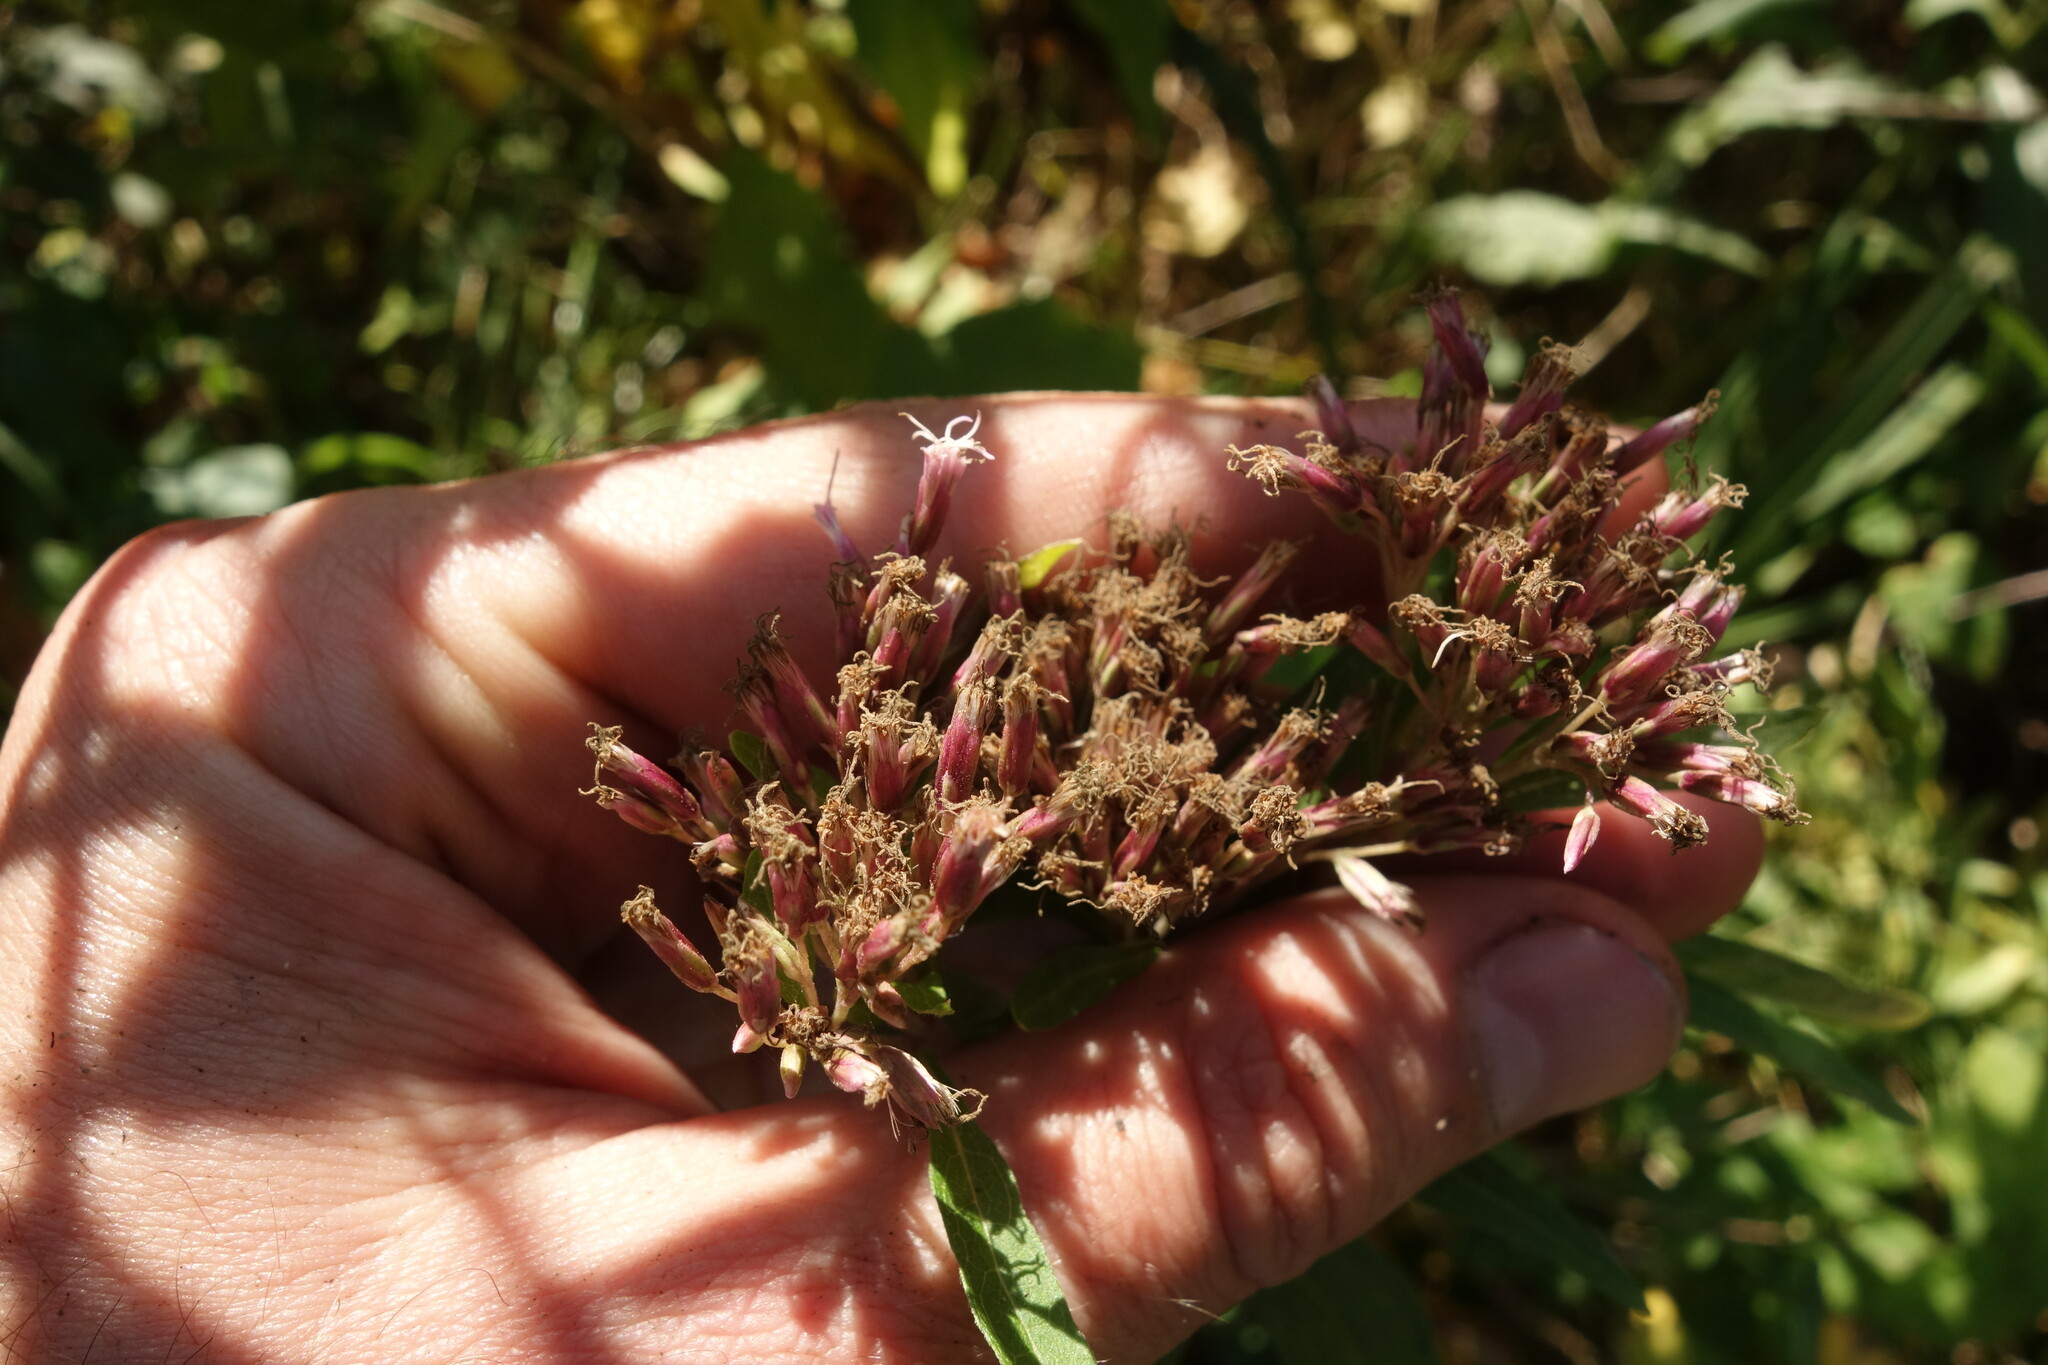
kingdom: Plantae
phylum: Tracheophyta
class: Magnoliopsida
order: Asterales
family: Asteraceae
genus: Eupatorium
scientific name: Eupatorium cannabinum
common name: Hemp-agrimony
